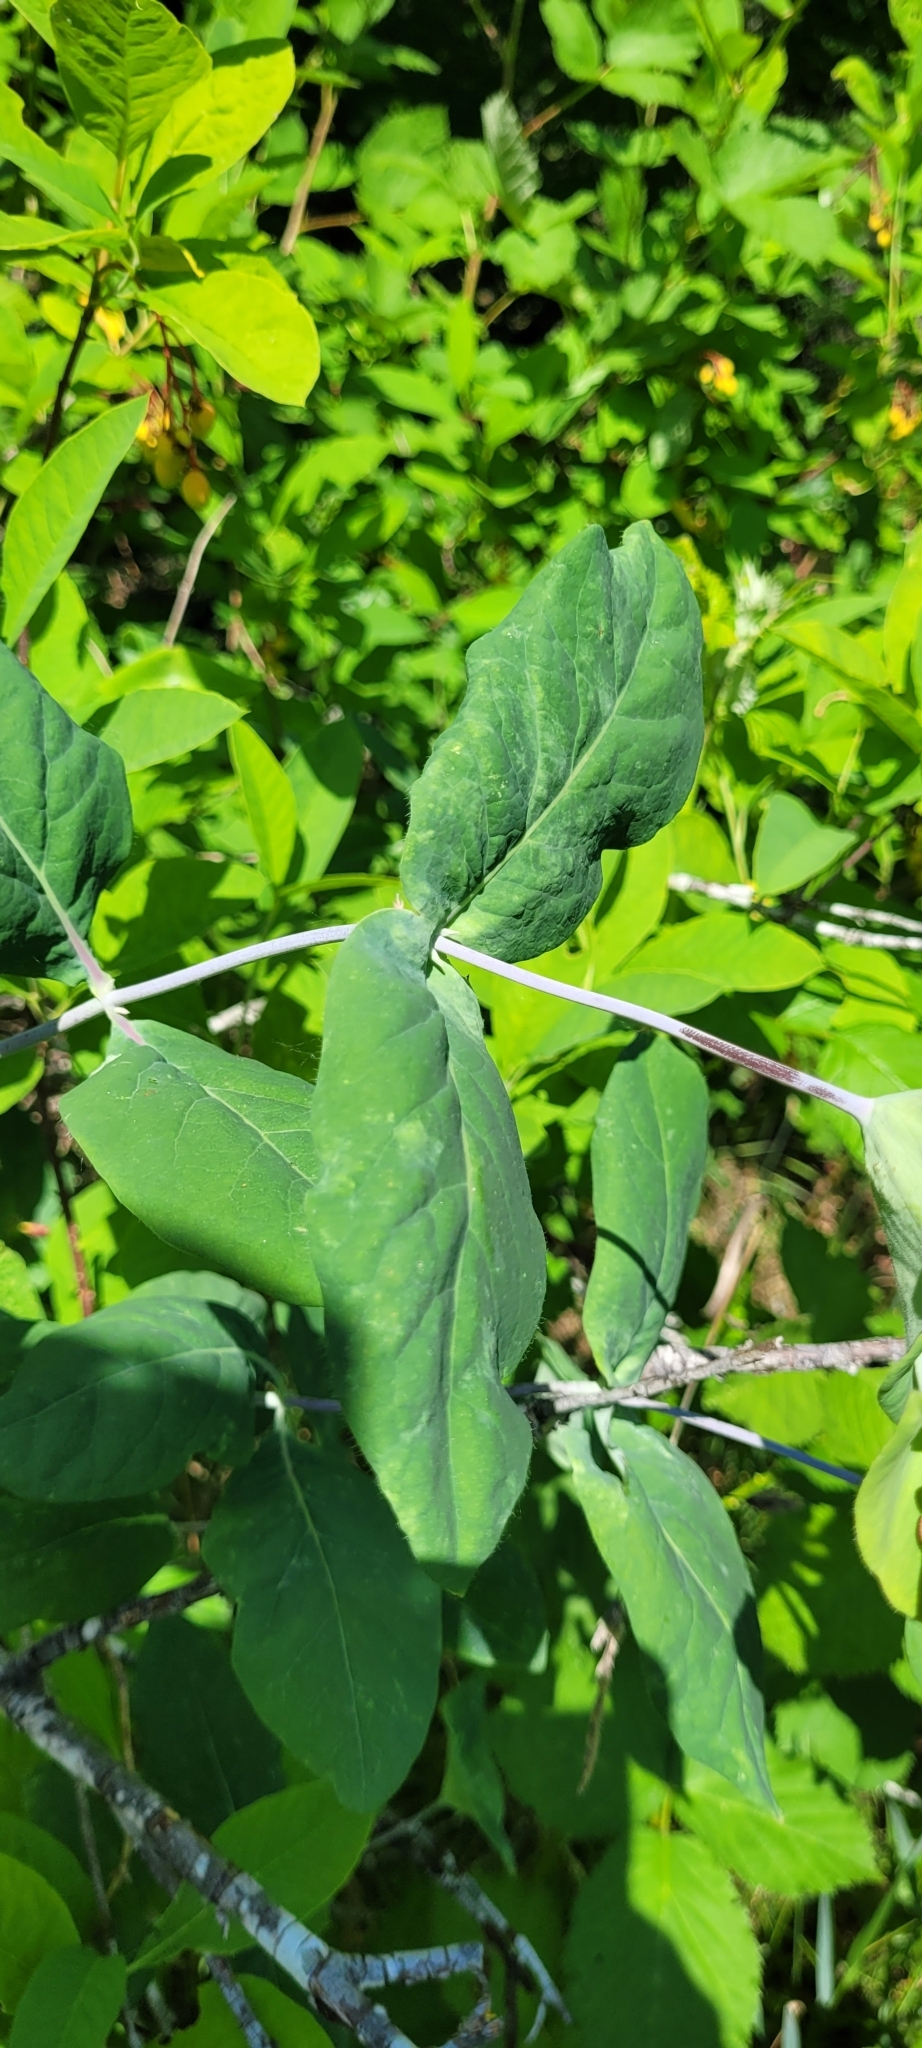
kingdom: Plantae
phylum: Tracheophyta
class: Magnoliopsida
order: Dipsacales
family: Caprifoliaceae
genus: Lonicera
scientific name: Lonicera ciliosa
